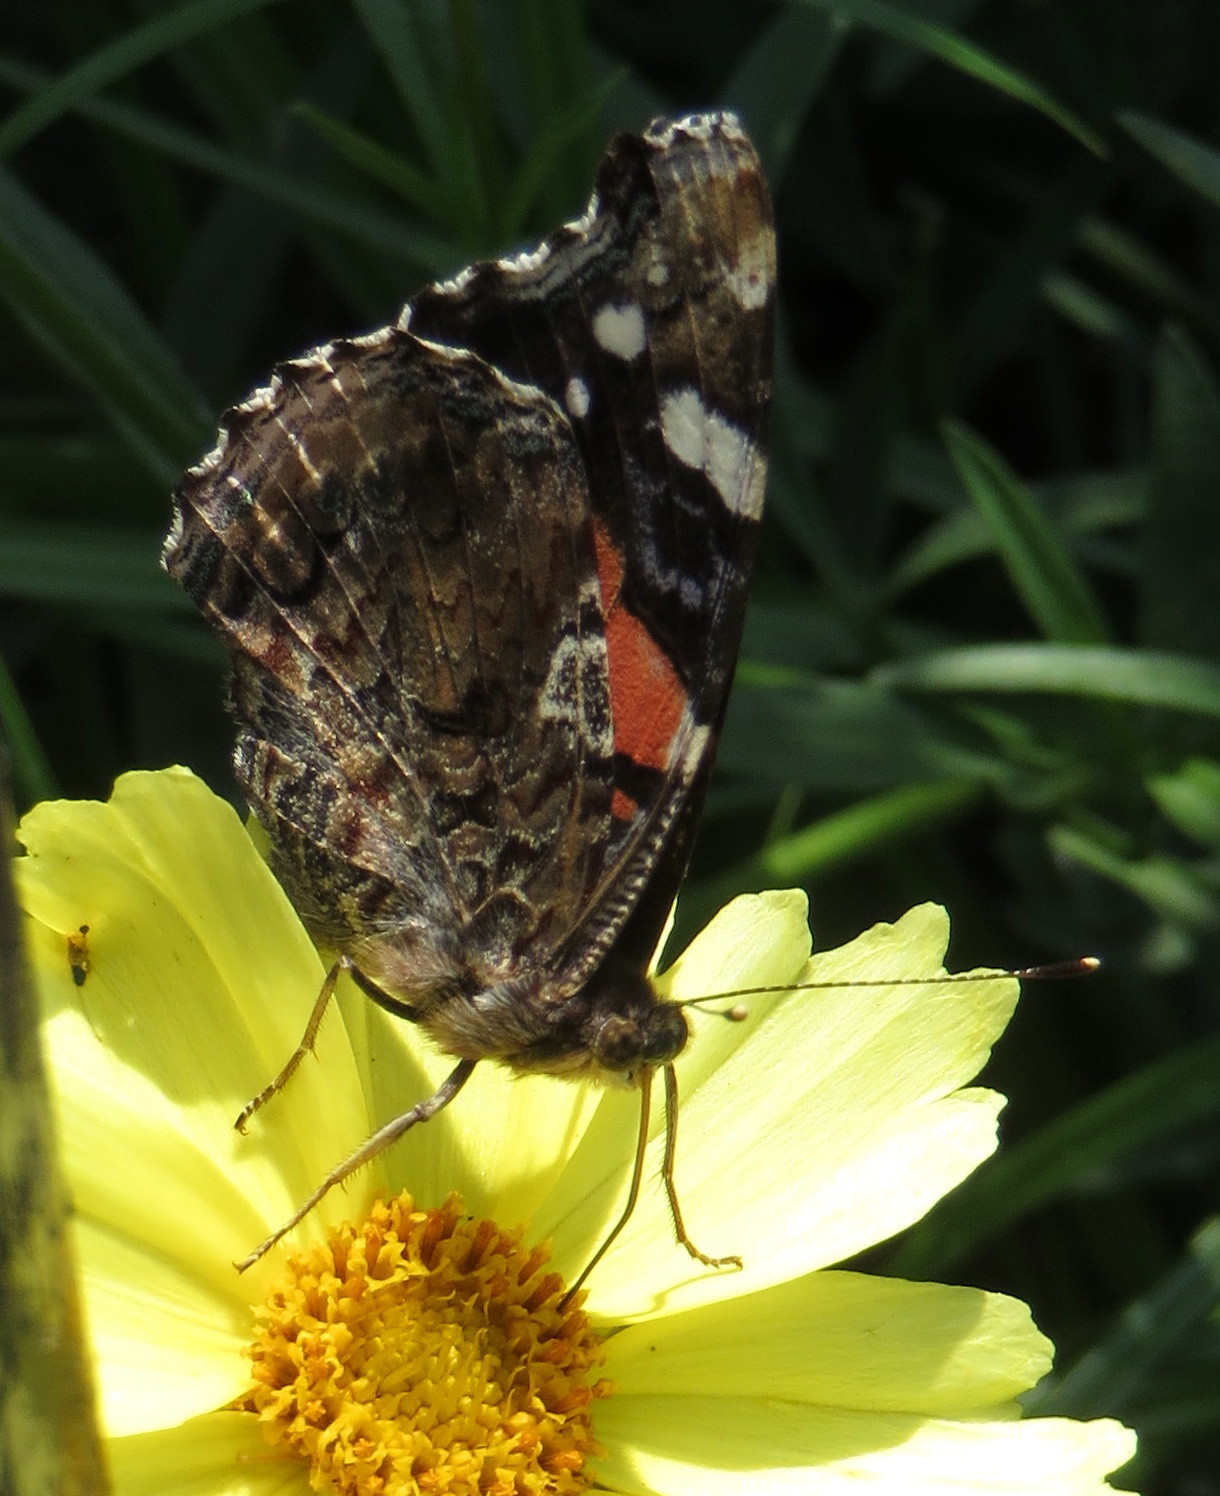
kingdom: Animalia
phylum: Arthropoda
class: Insecta
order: Lepidoptera
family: Nymphalidae
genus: Vanessa
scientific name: Vanessa atalanta
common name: Red admiral
